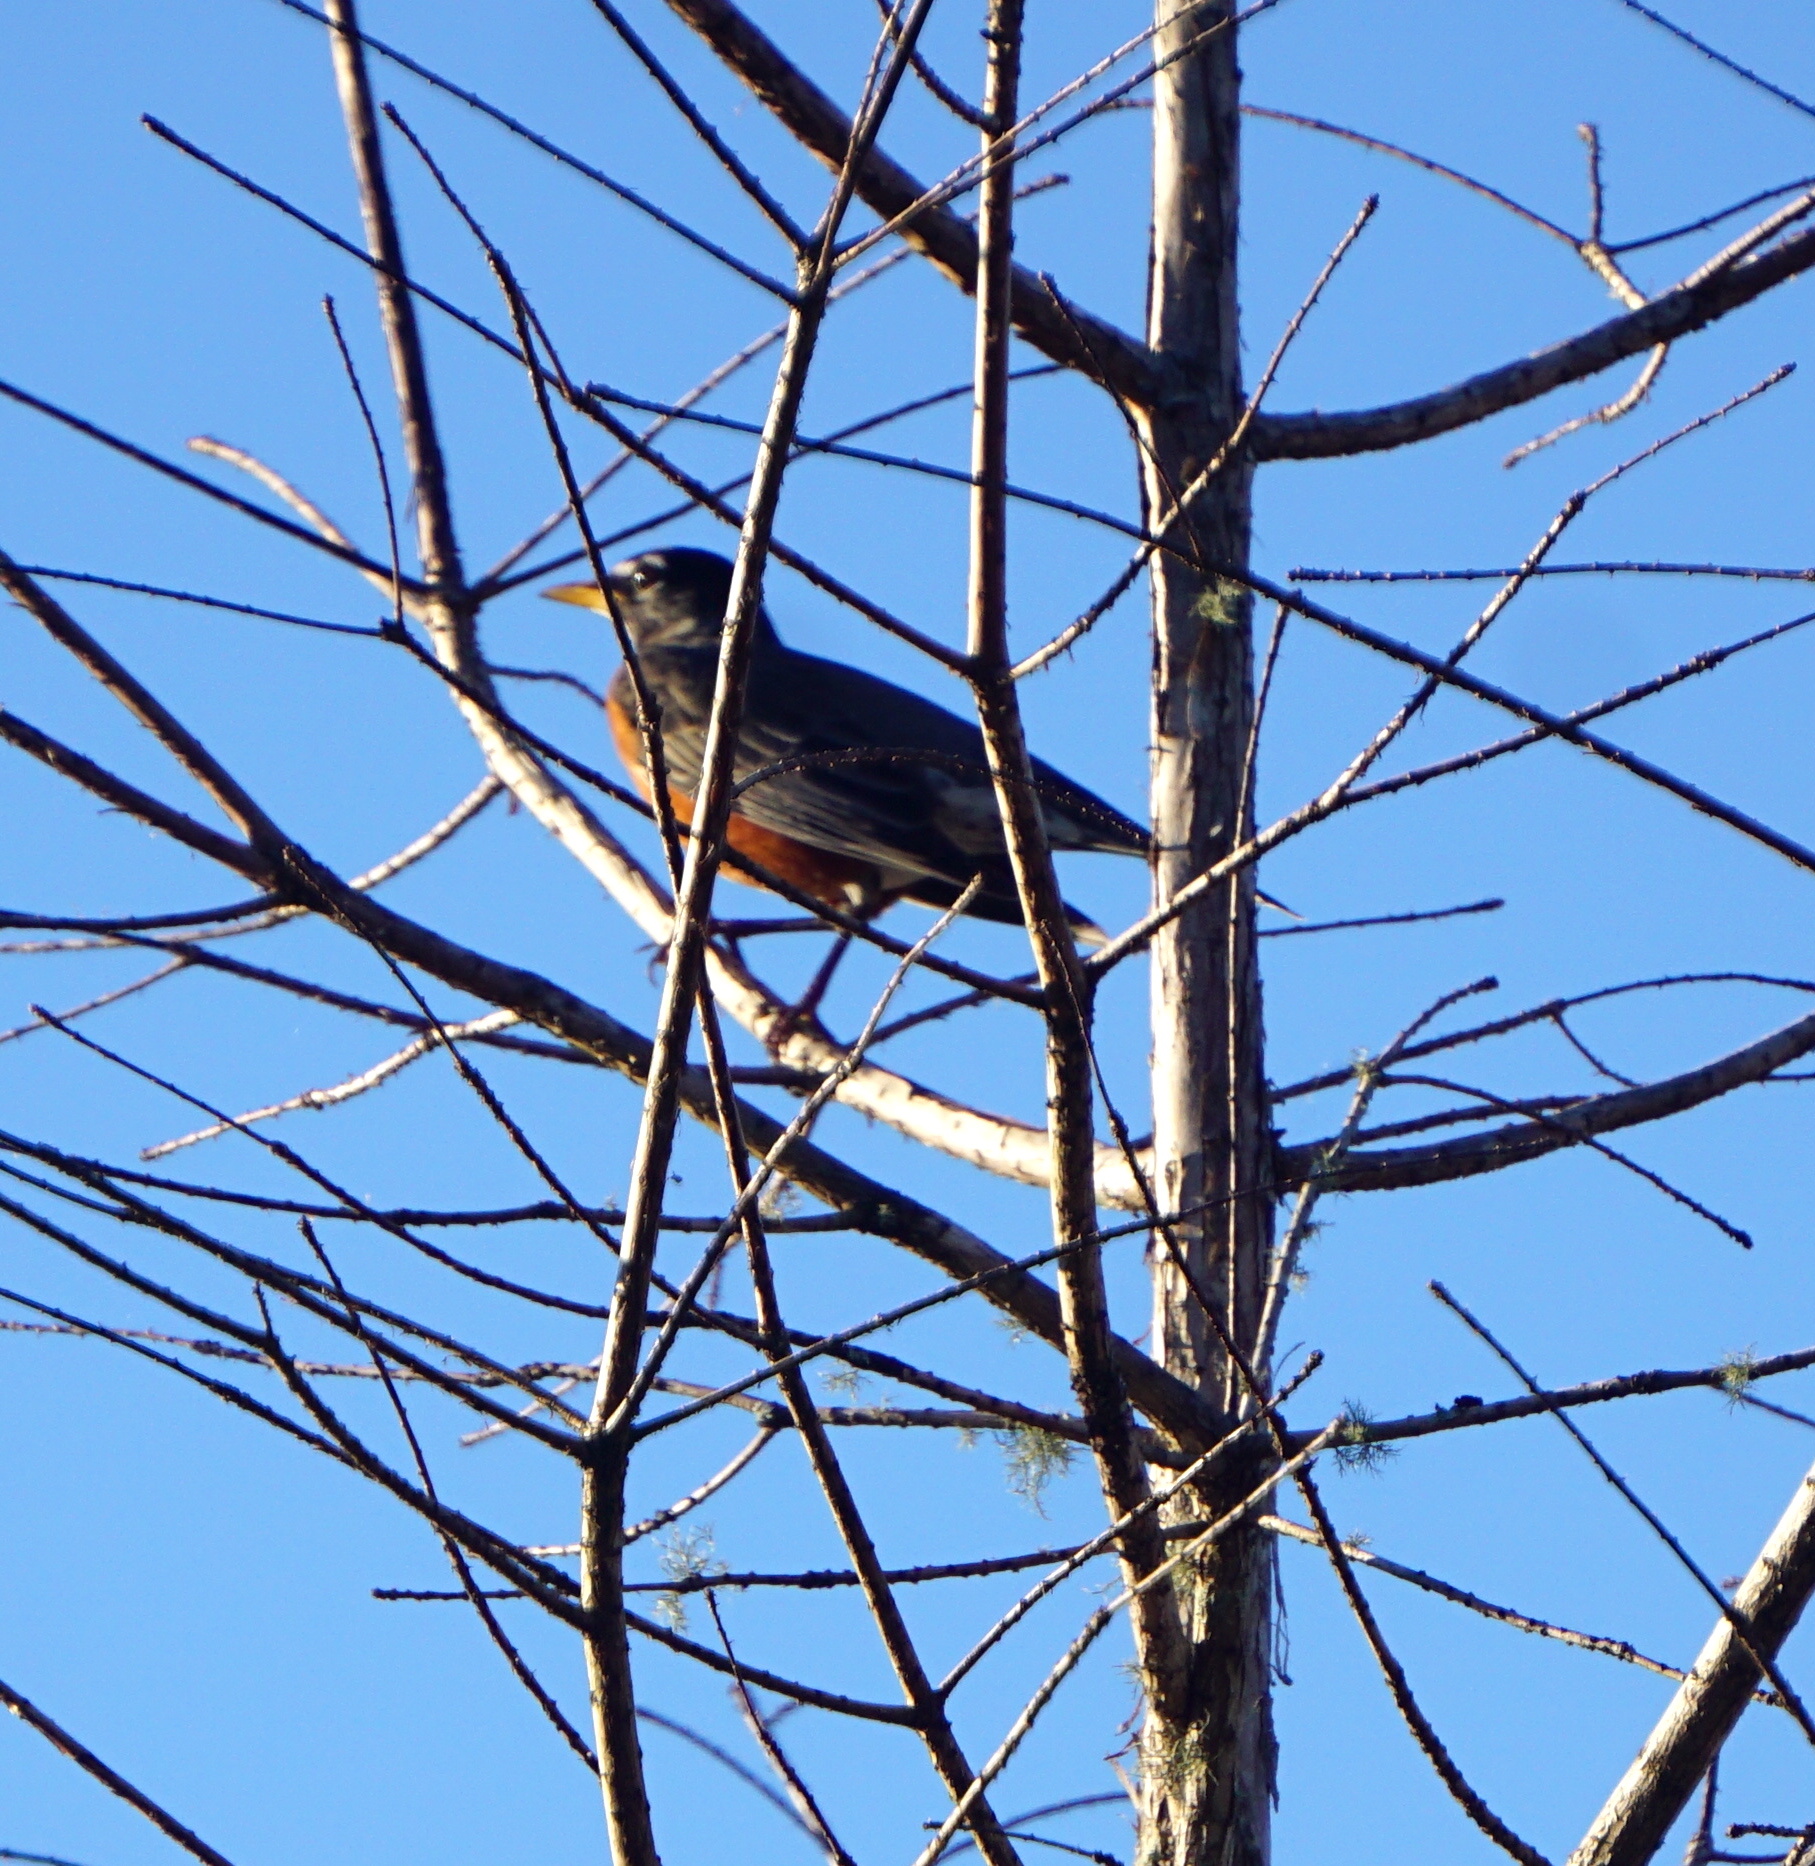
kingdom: Animalia
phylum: Chordata
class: Aves
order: Passeriformes
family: Turdidae
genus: Turdus
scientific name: Turdus migratorius
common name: American robin
